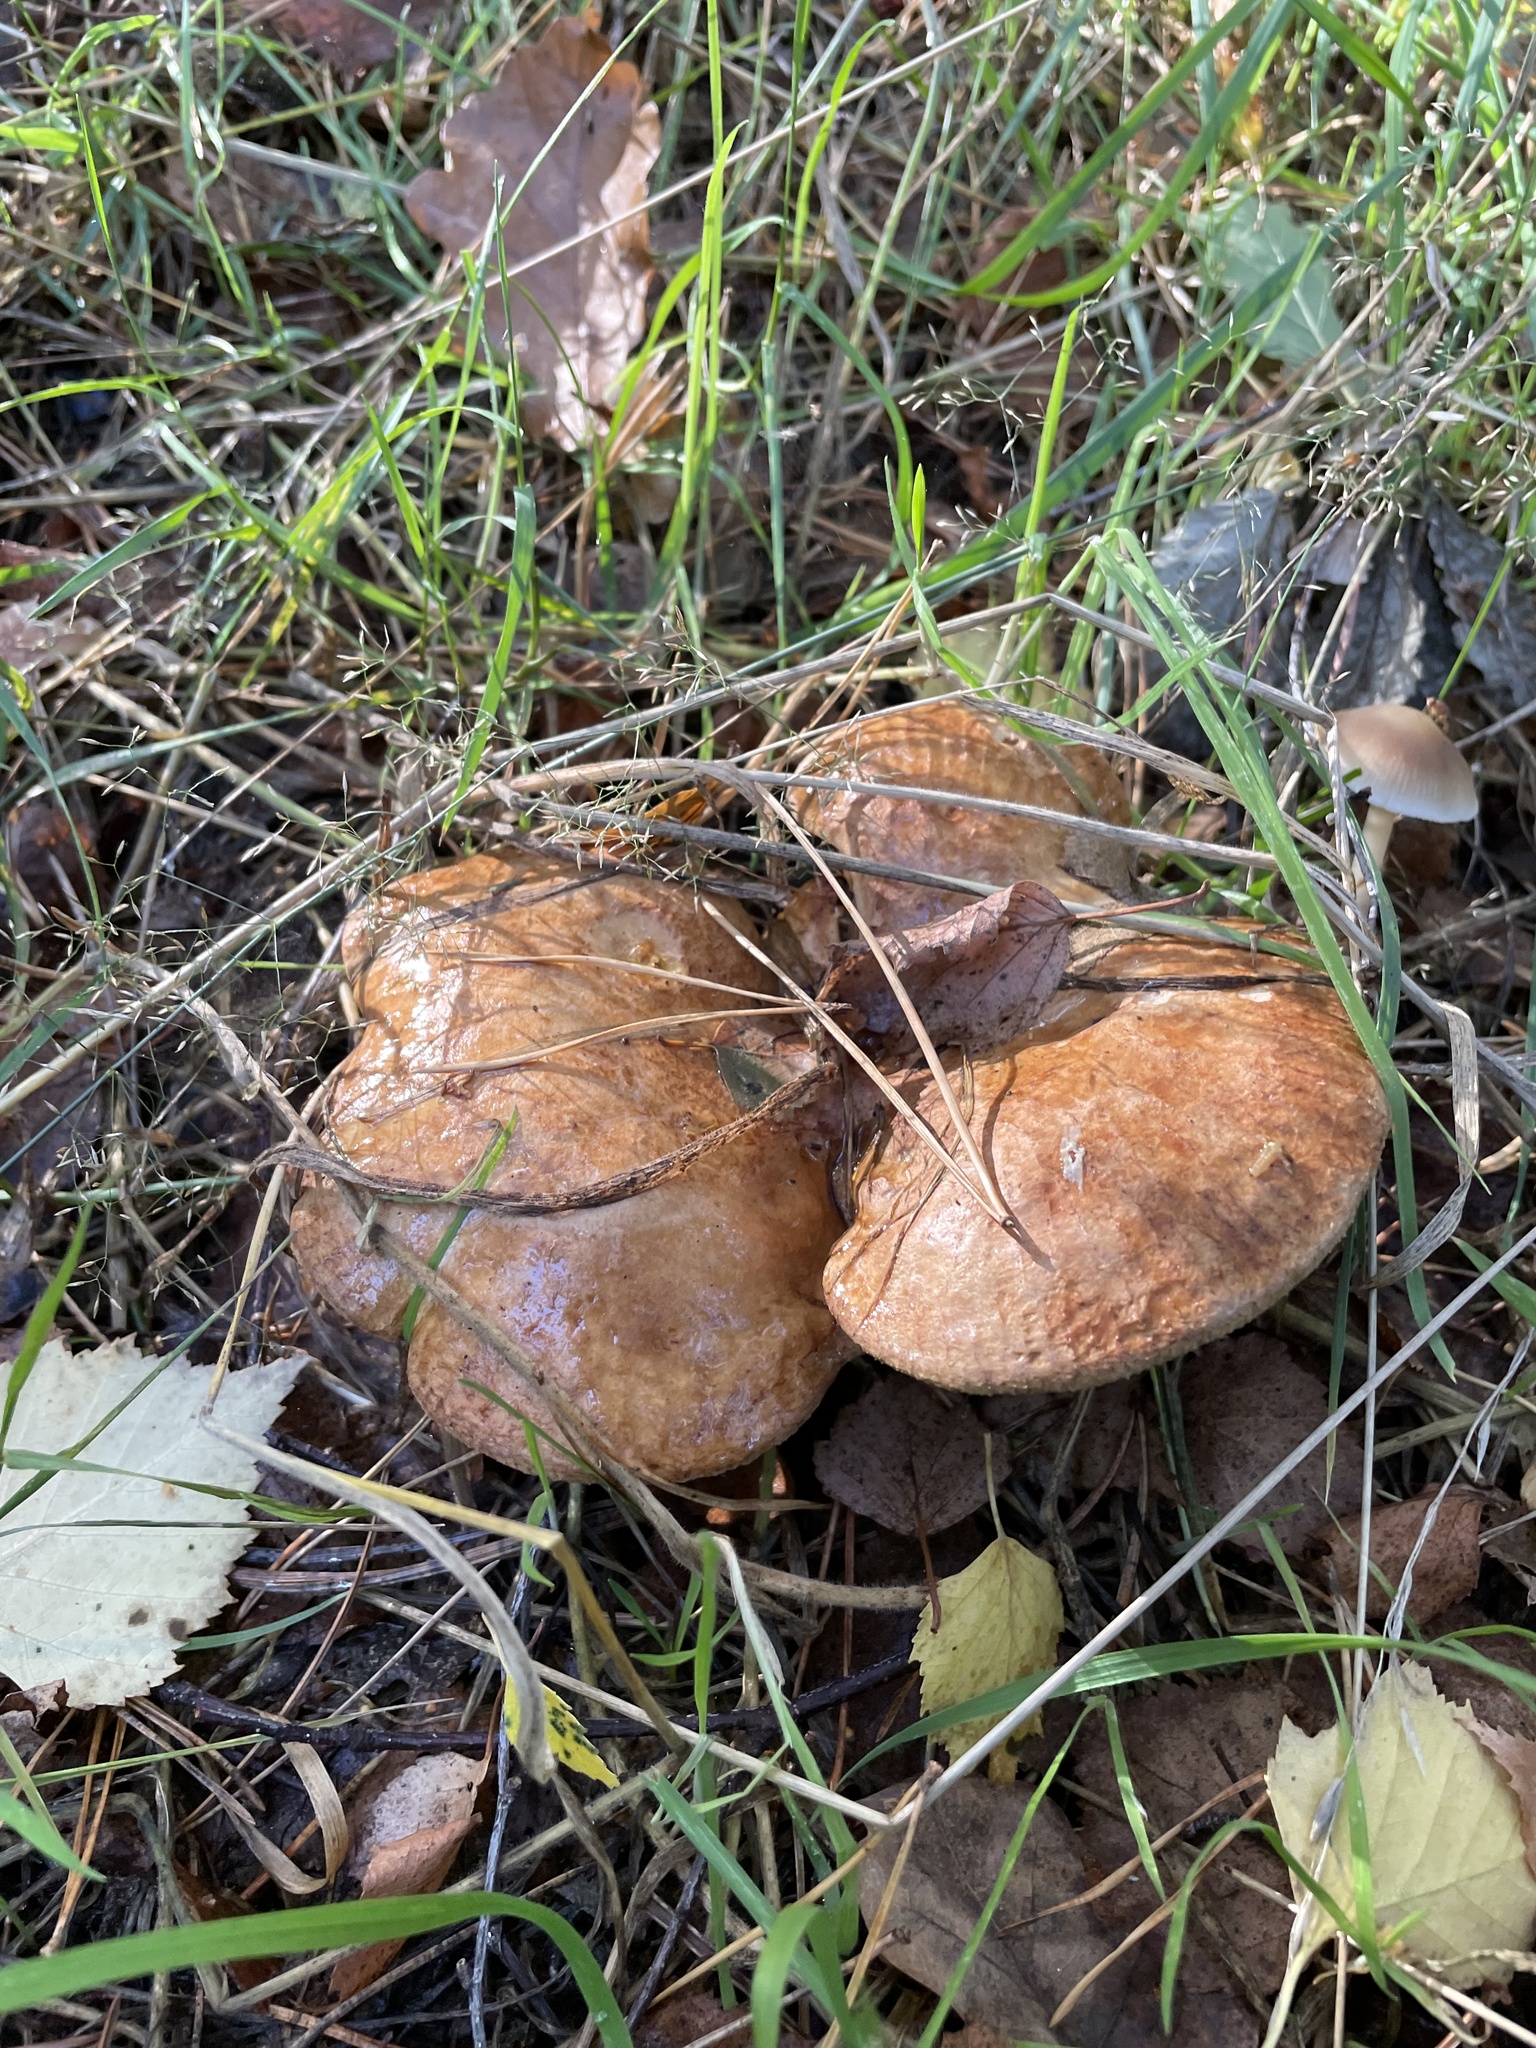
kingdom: Fungi
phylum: Basidiomycota
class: Agaricomycetes
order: Boletales
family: Paxillaceae
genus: Paxillus
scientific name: Paxillus involutus
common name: Brown roll rim
